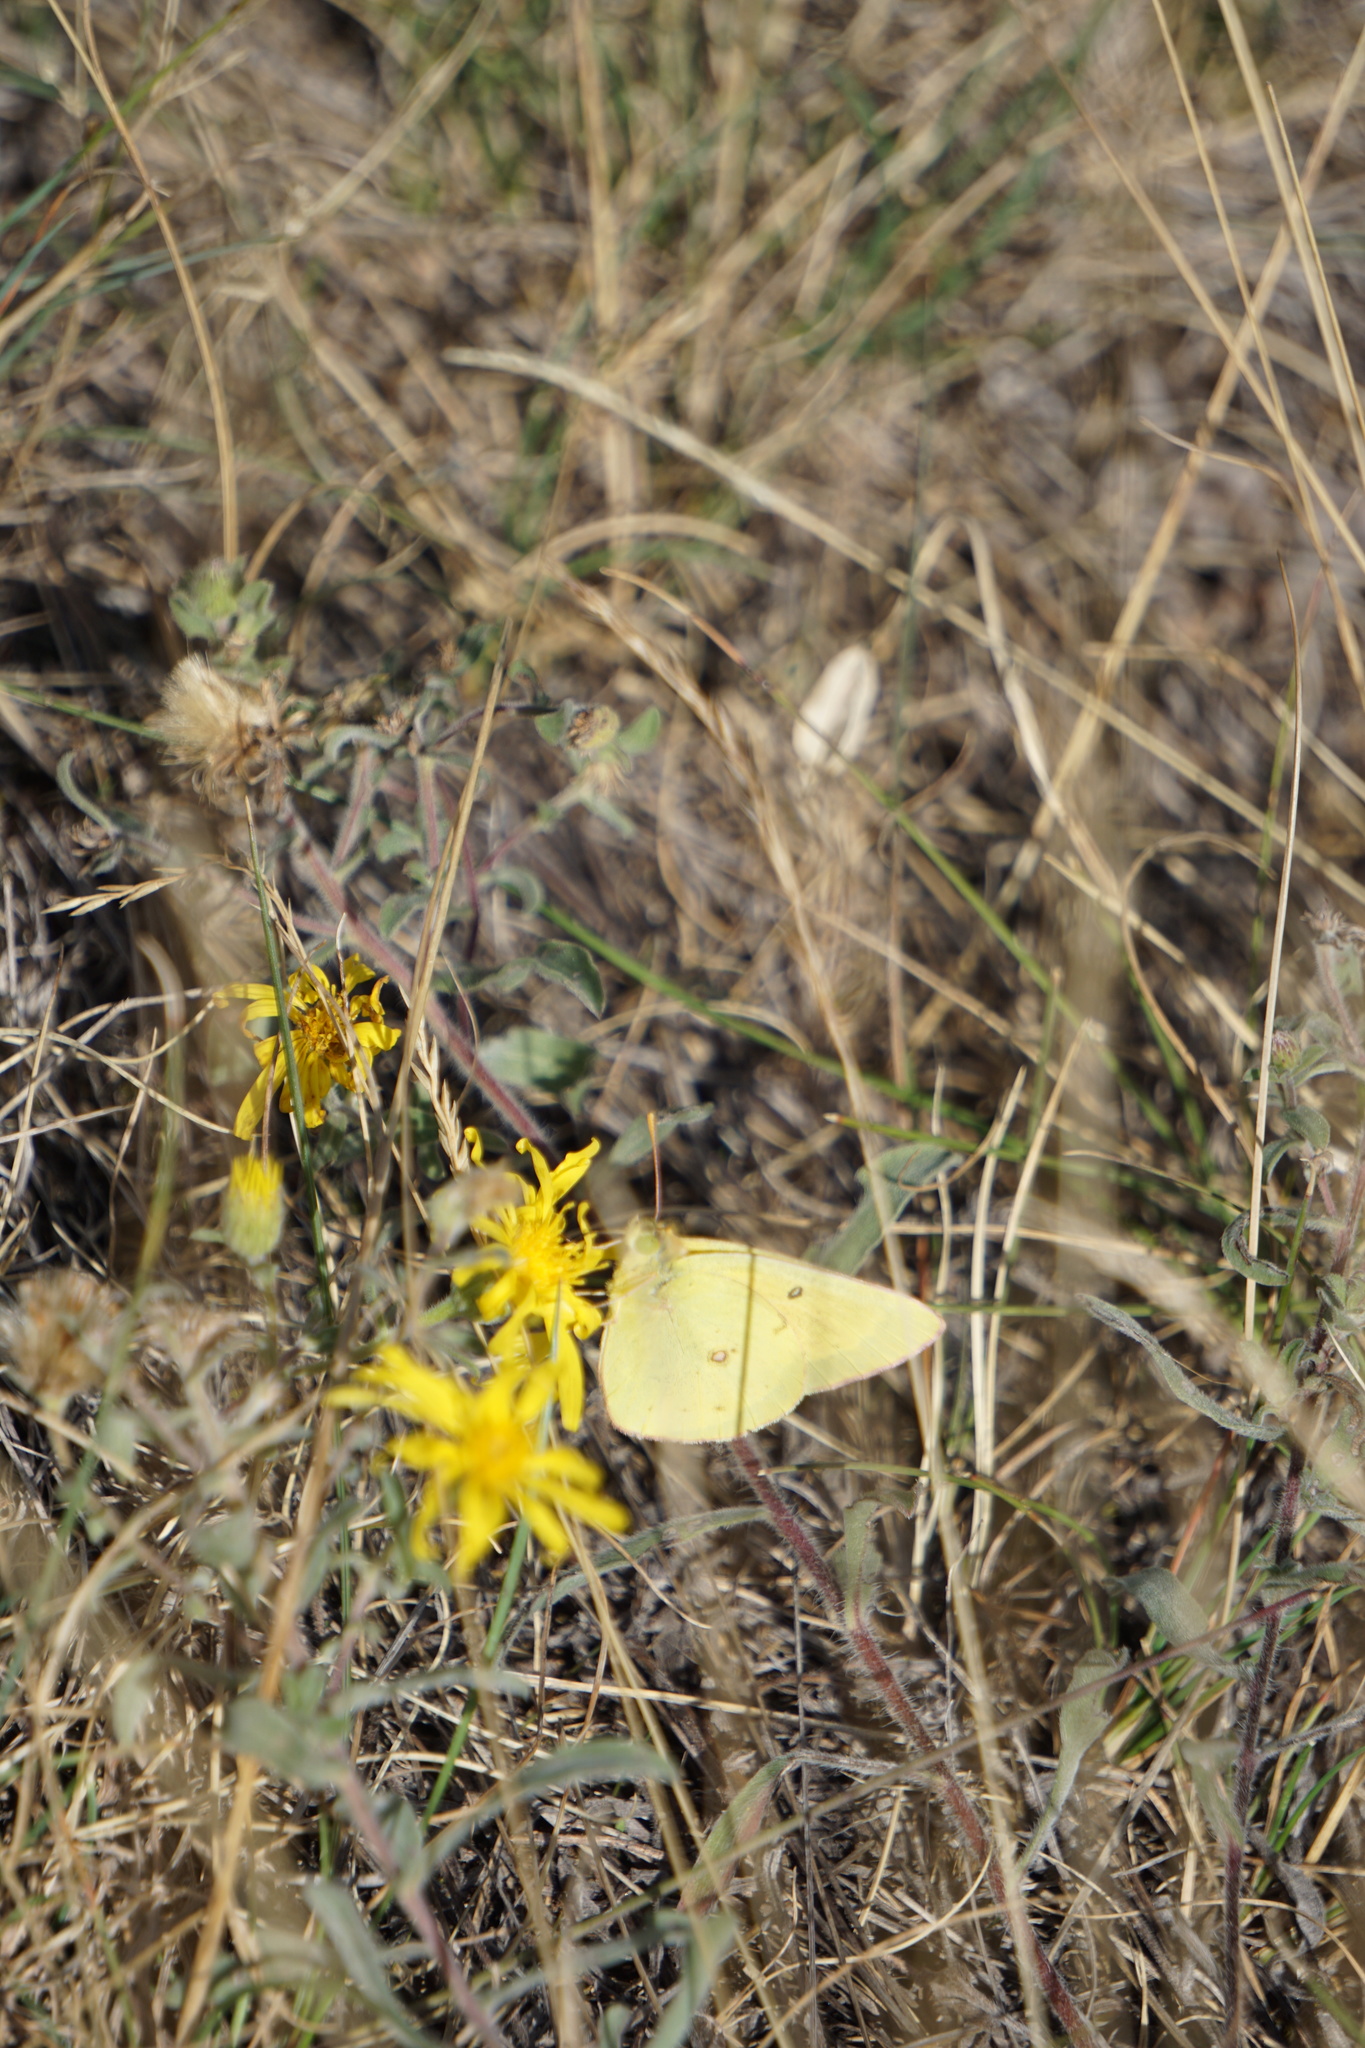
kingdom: Animalia
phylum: Arthropoda
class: Insecta
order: Lepidoptera
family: Pieridae
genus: Colias
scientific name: Colias eurytheme
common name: Alfalfa butterfly
